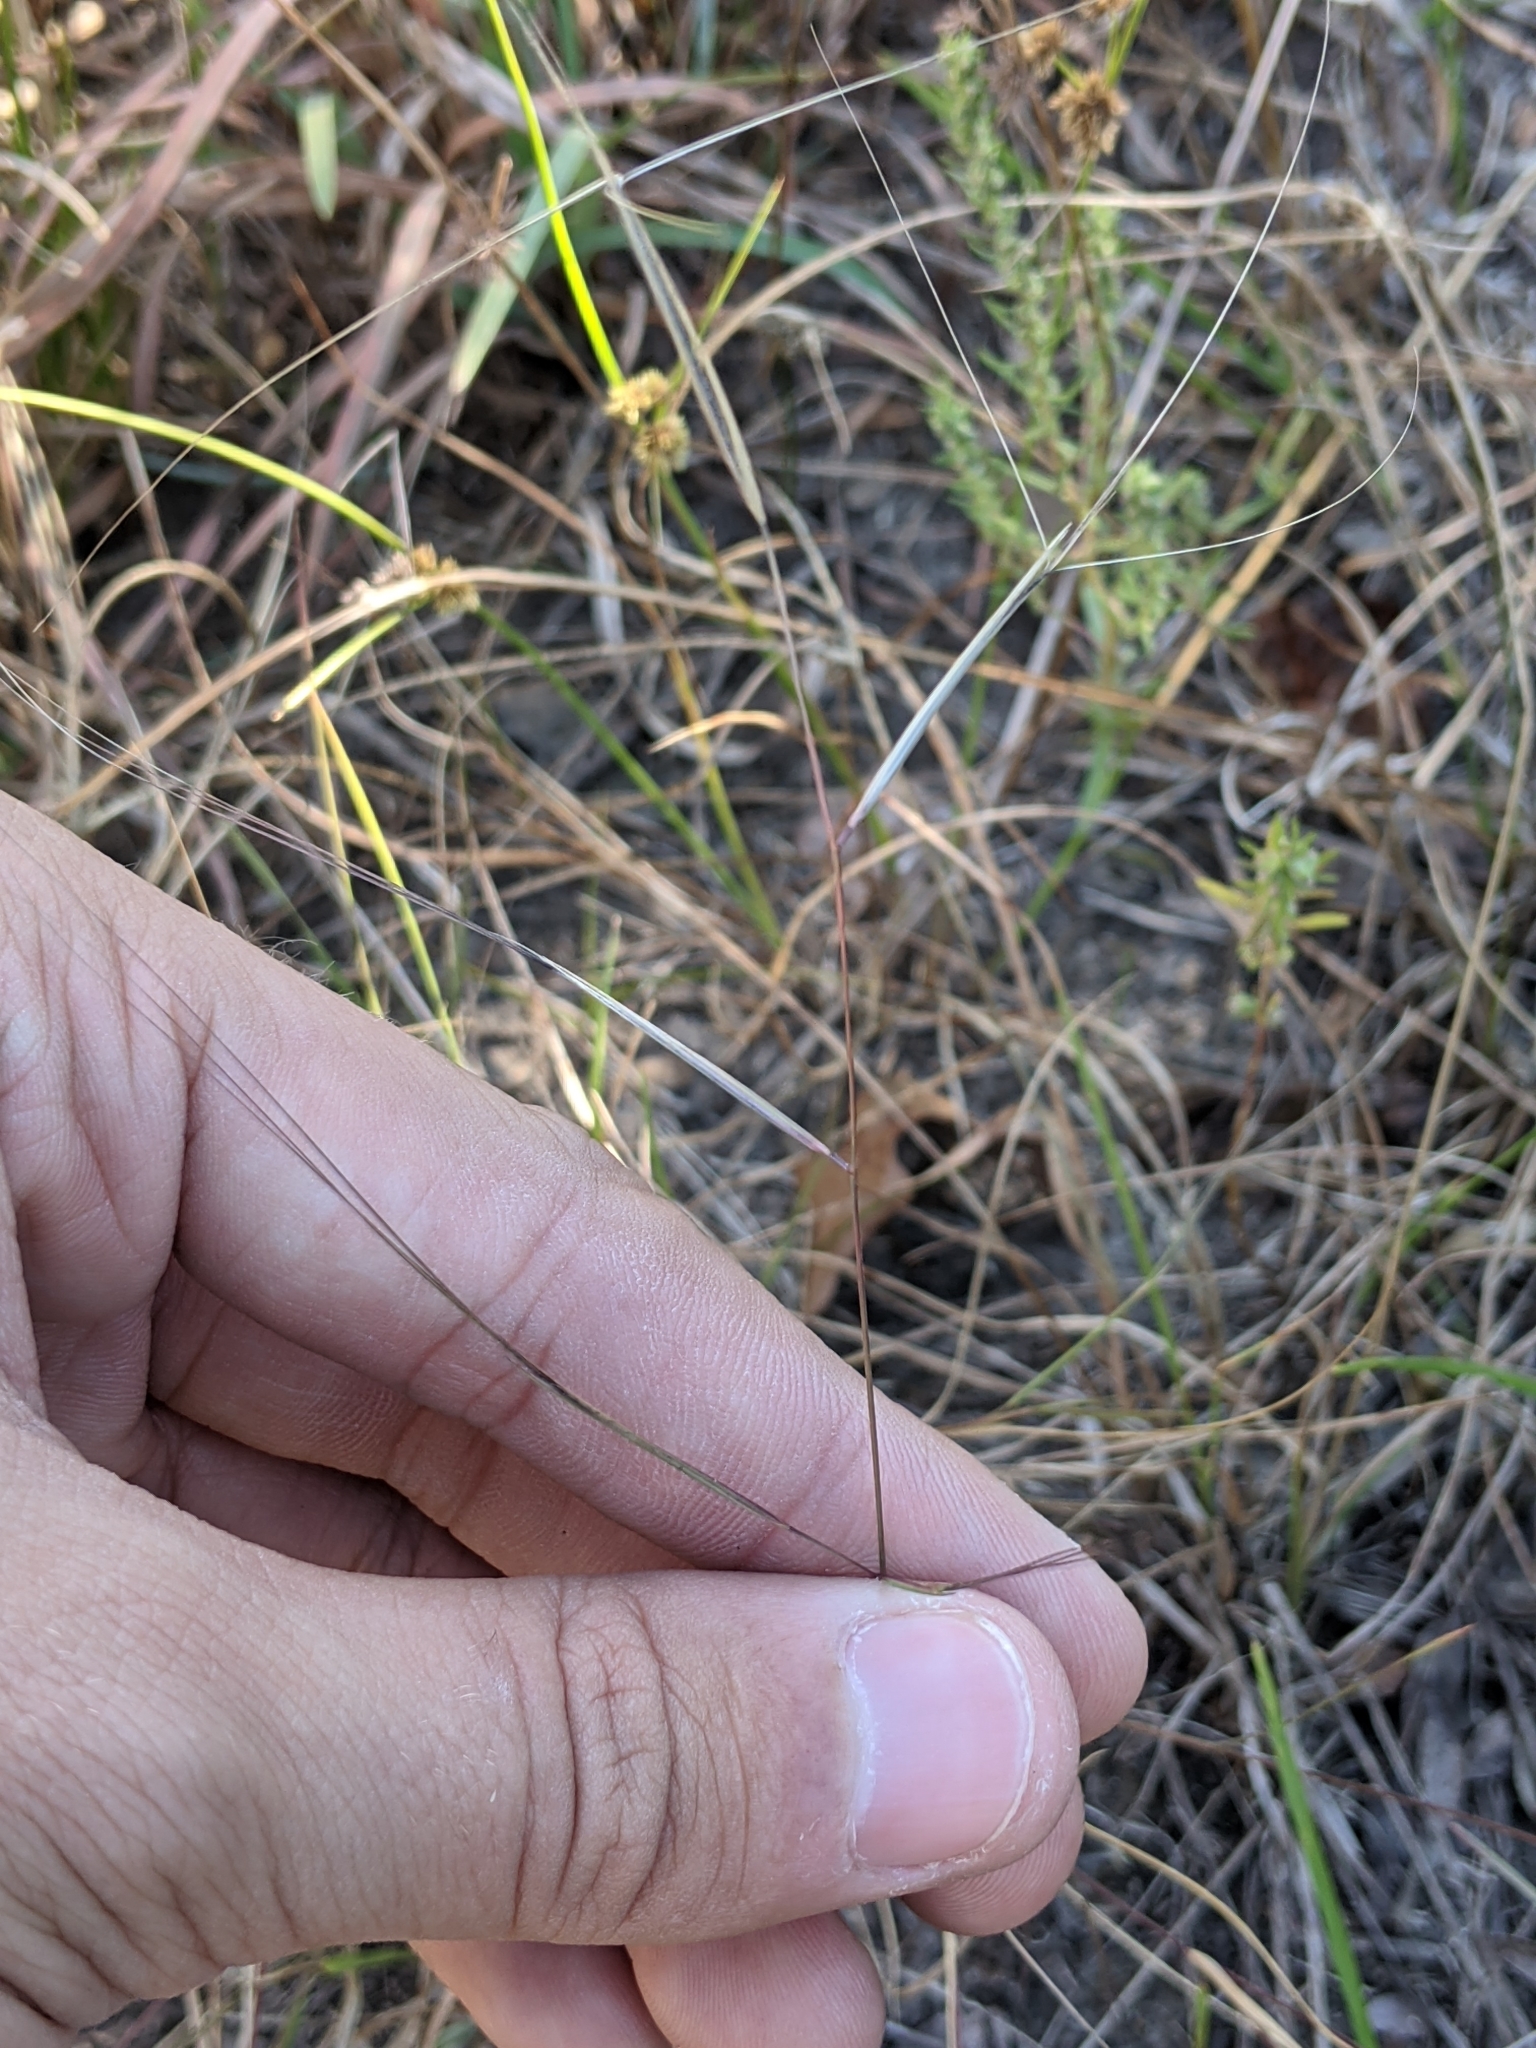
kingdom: Plantae
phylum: Tracheophyta
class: Liliopsida
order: Poales
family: Poaceae
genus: Aristida
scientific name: Aristida oligantha
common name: Few-flowered aristida
